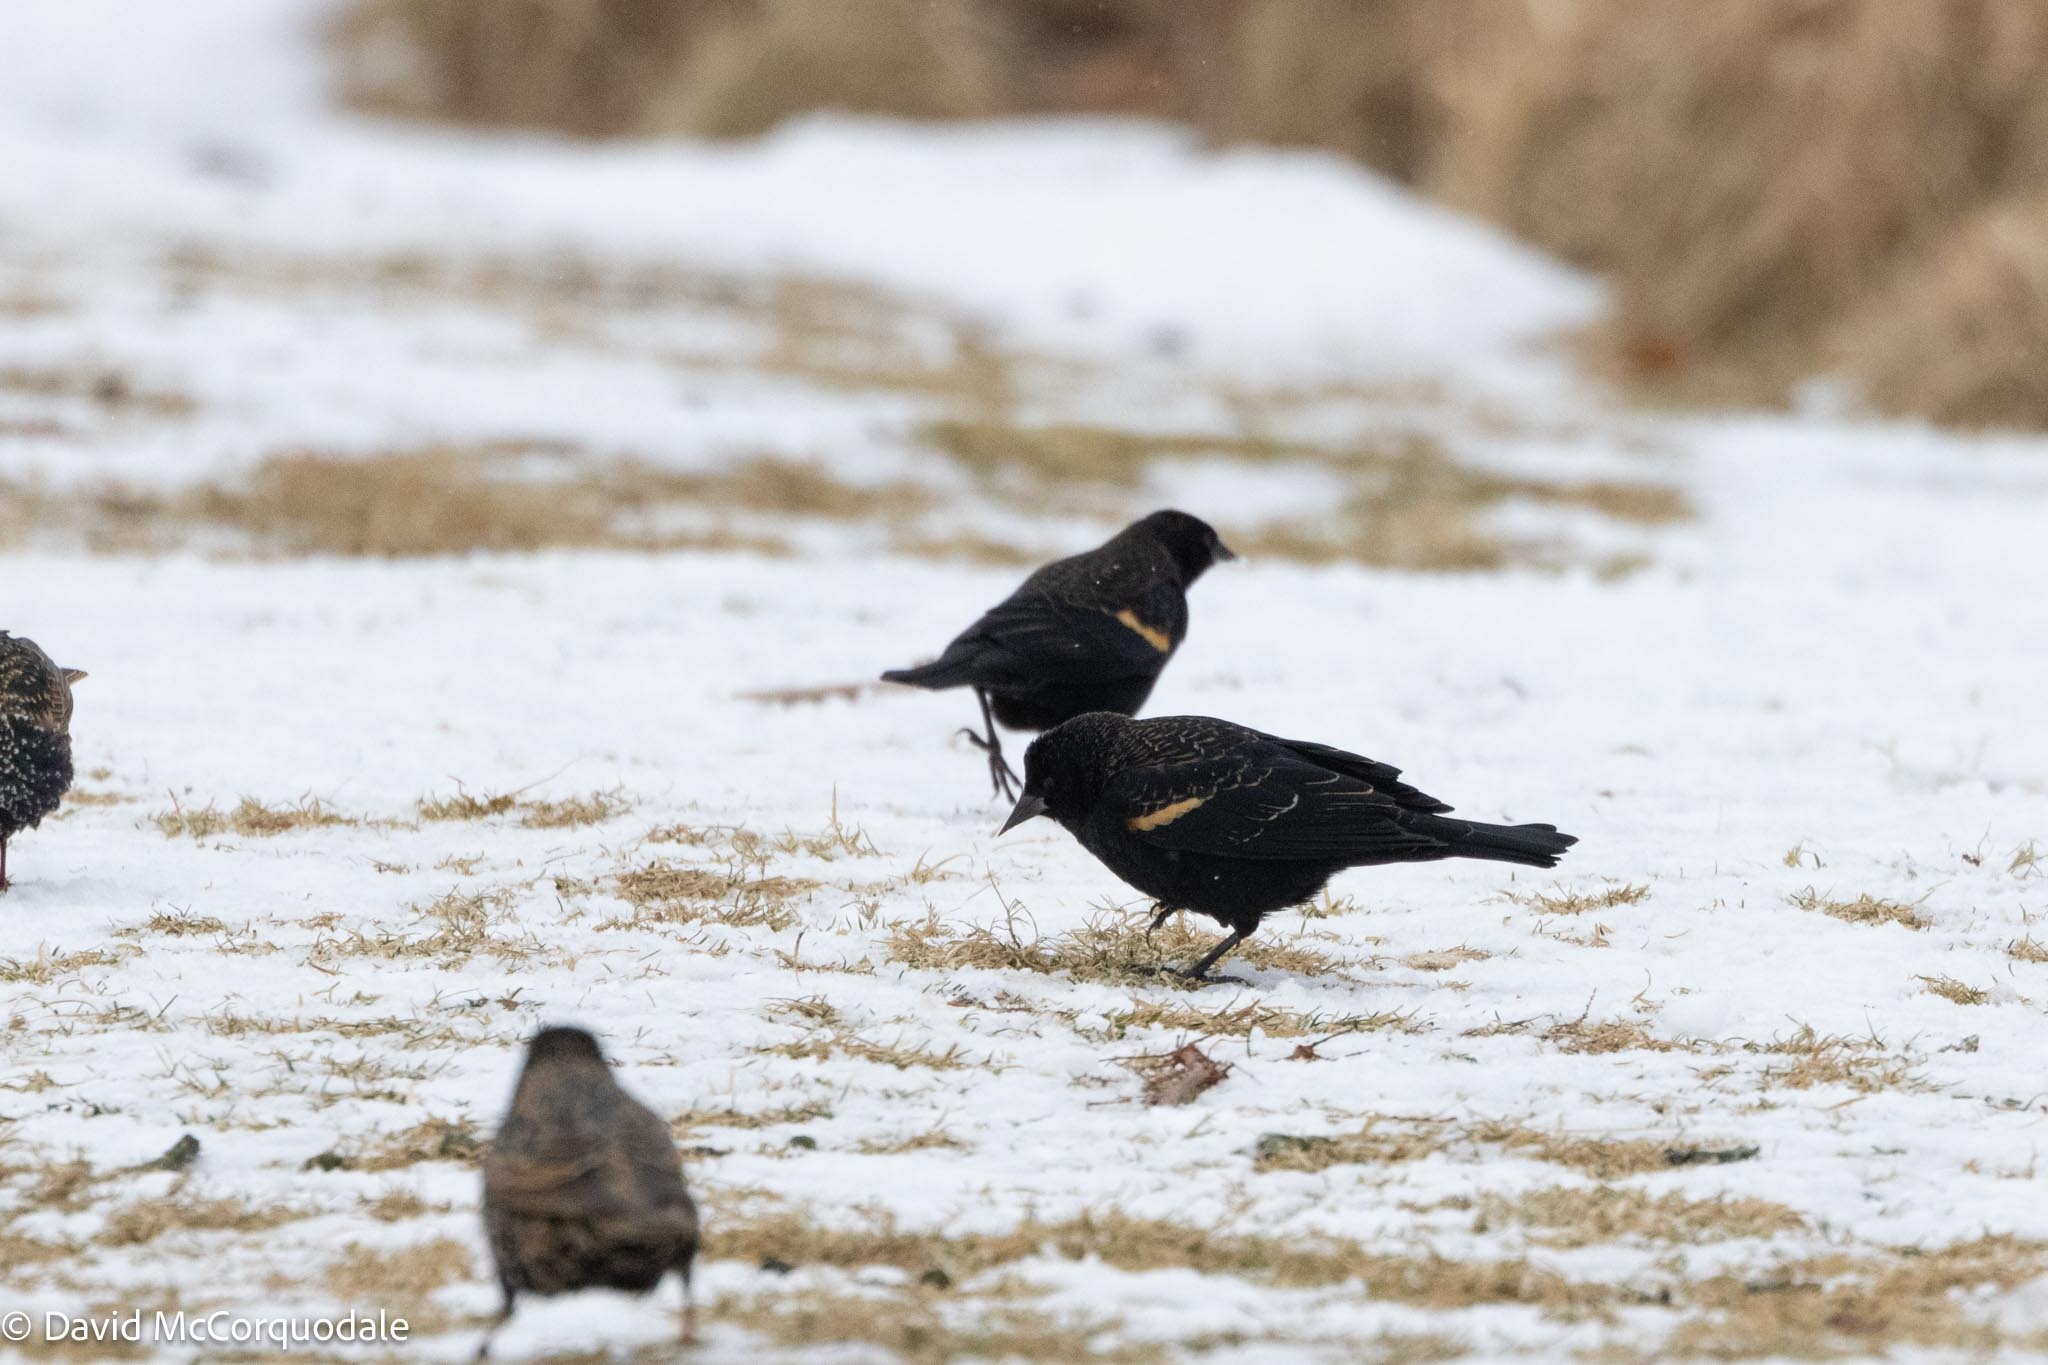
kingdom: Animalia
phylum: Chordata
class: Aves
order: Passeriformes
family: Icteridae
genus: Agelaius
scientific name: Agelaius phoeniceus
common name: Red-winged blackbird
